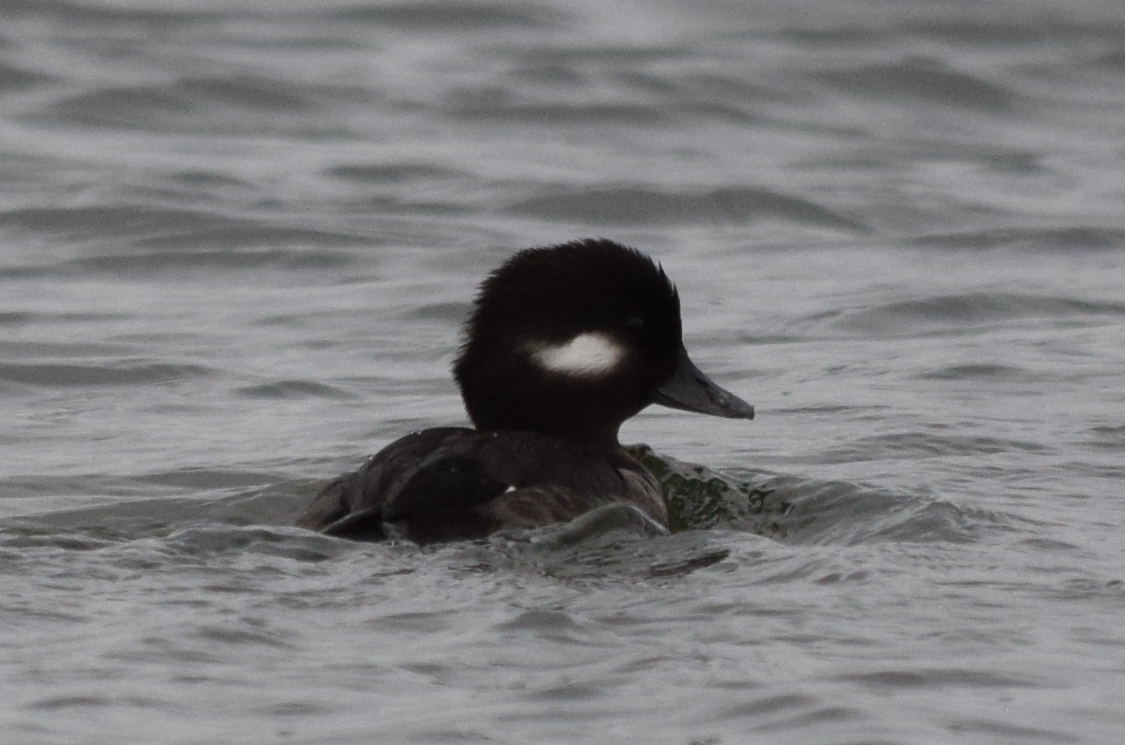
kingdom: Animalia
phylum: Chordata
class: Aves
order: Anseriformes
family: Anatidae
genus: Bucephala
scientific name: Bucephala albeola
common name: Bufflehead
